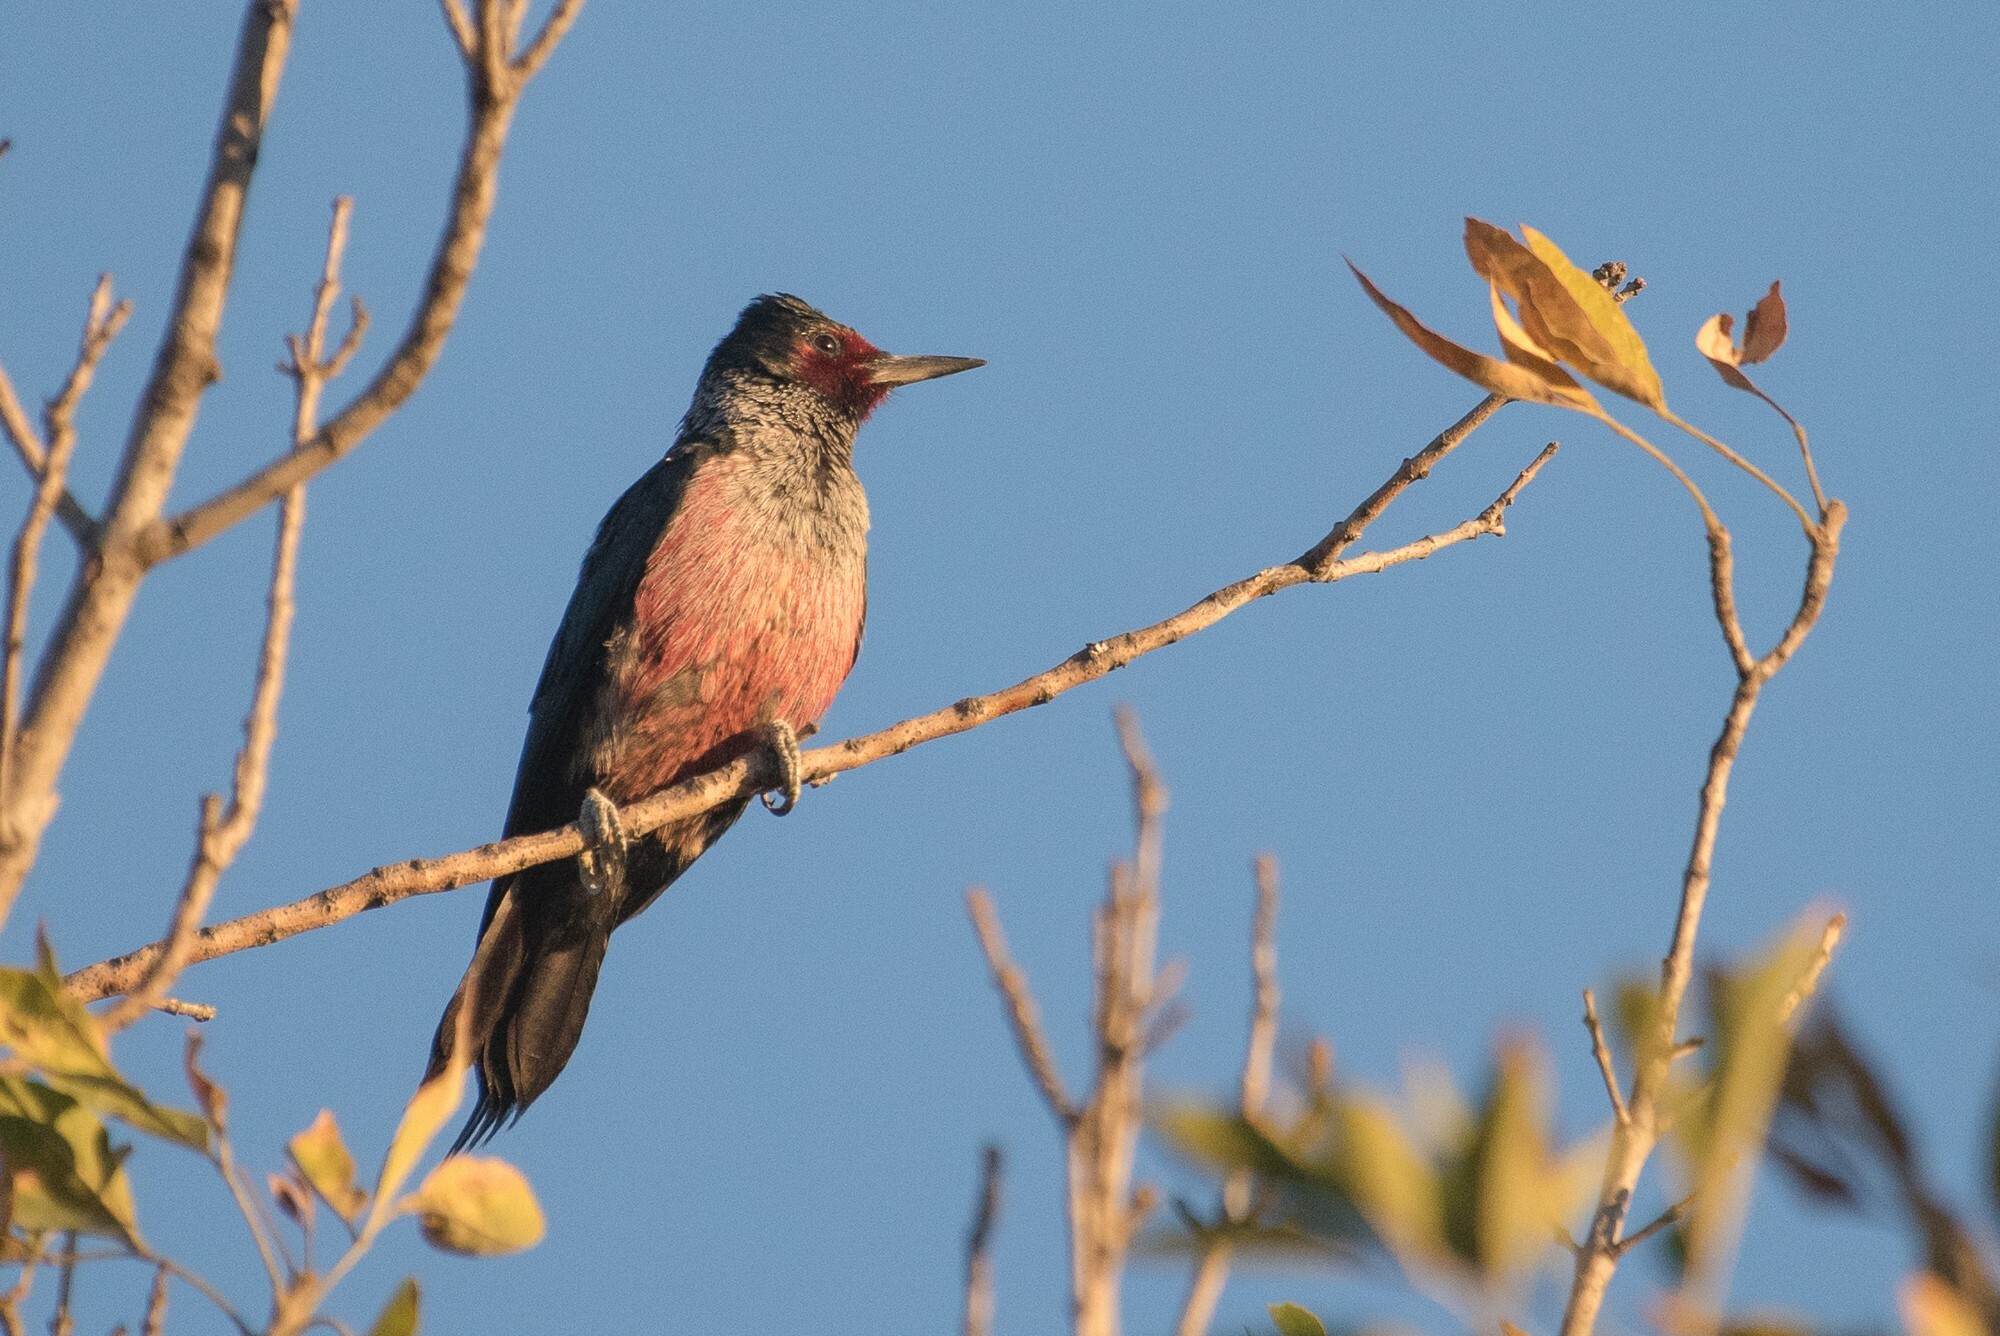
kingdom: Animalia
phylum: Chordata
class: Aves
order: Piciformes
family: Picidae
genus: Melanerpes
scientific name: Melanerpes lewis
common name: Lewis's woodpecker
